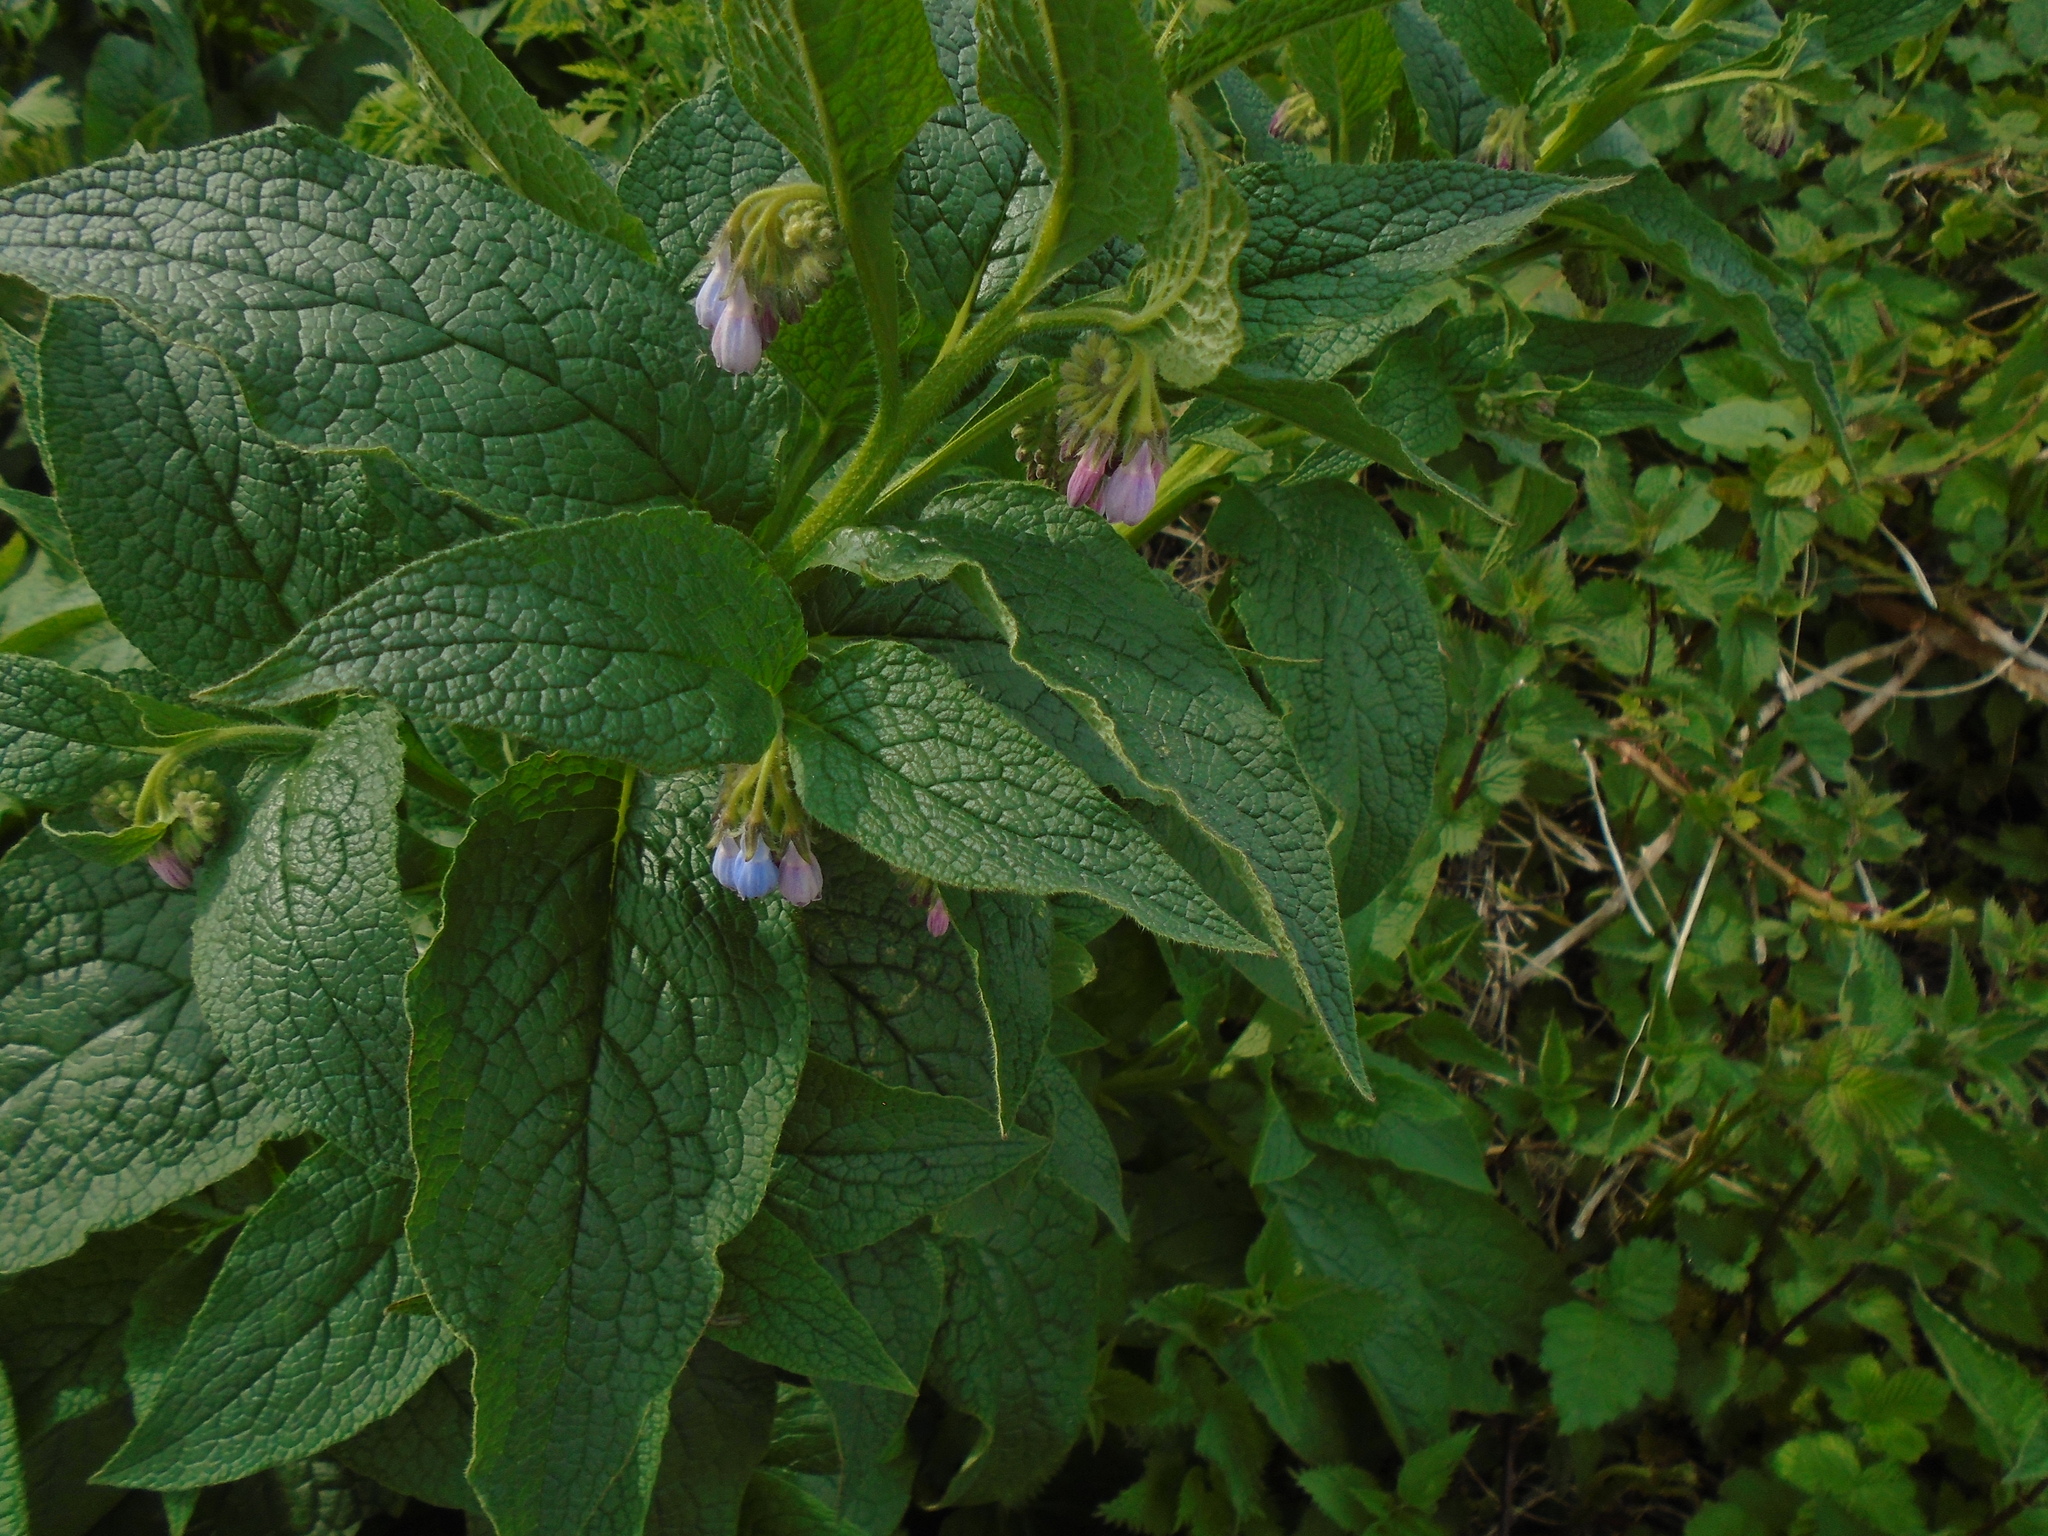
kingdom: Plantae
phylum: Tracheophyta
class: Magnoliopsida
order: Boraginales
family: Boraginaceae
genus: Symphytum
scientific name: Symphytum uplandicum
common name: Russian comfrey
